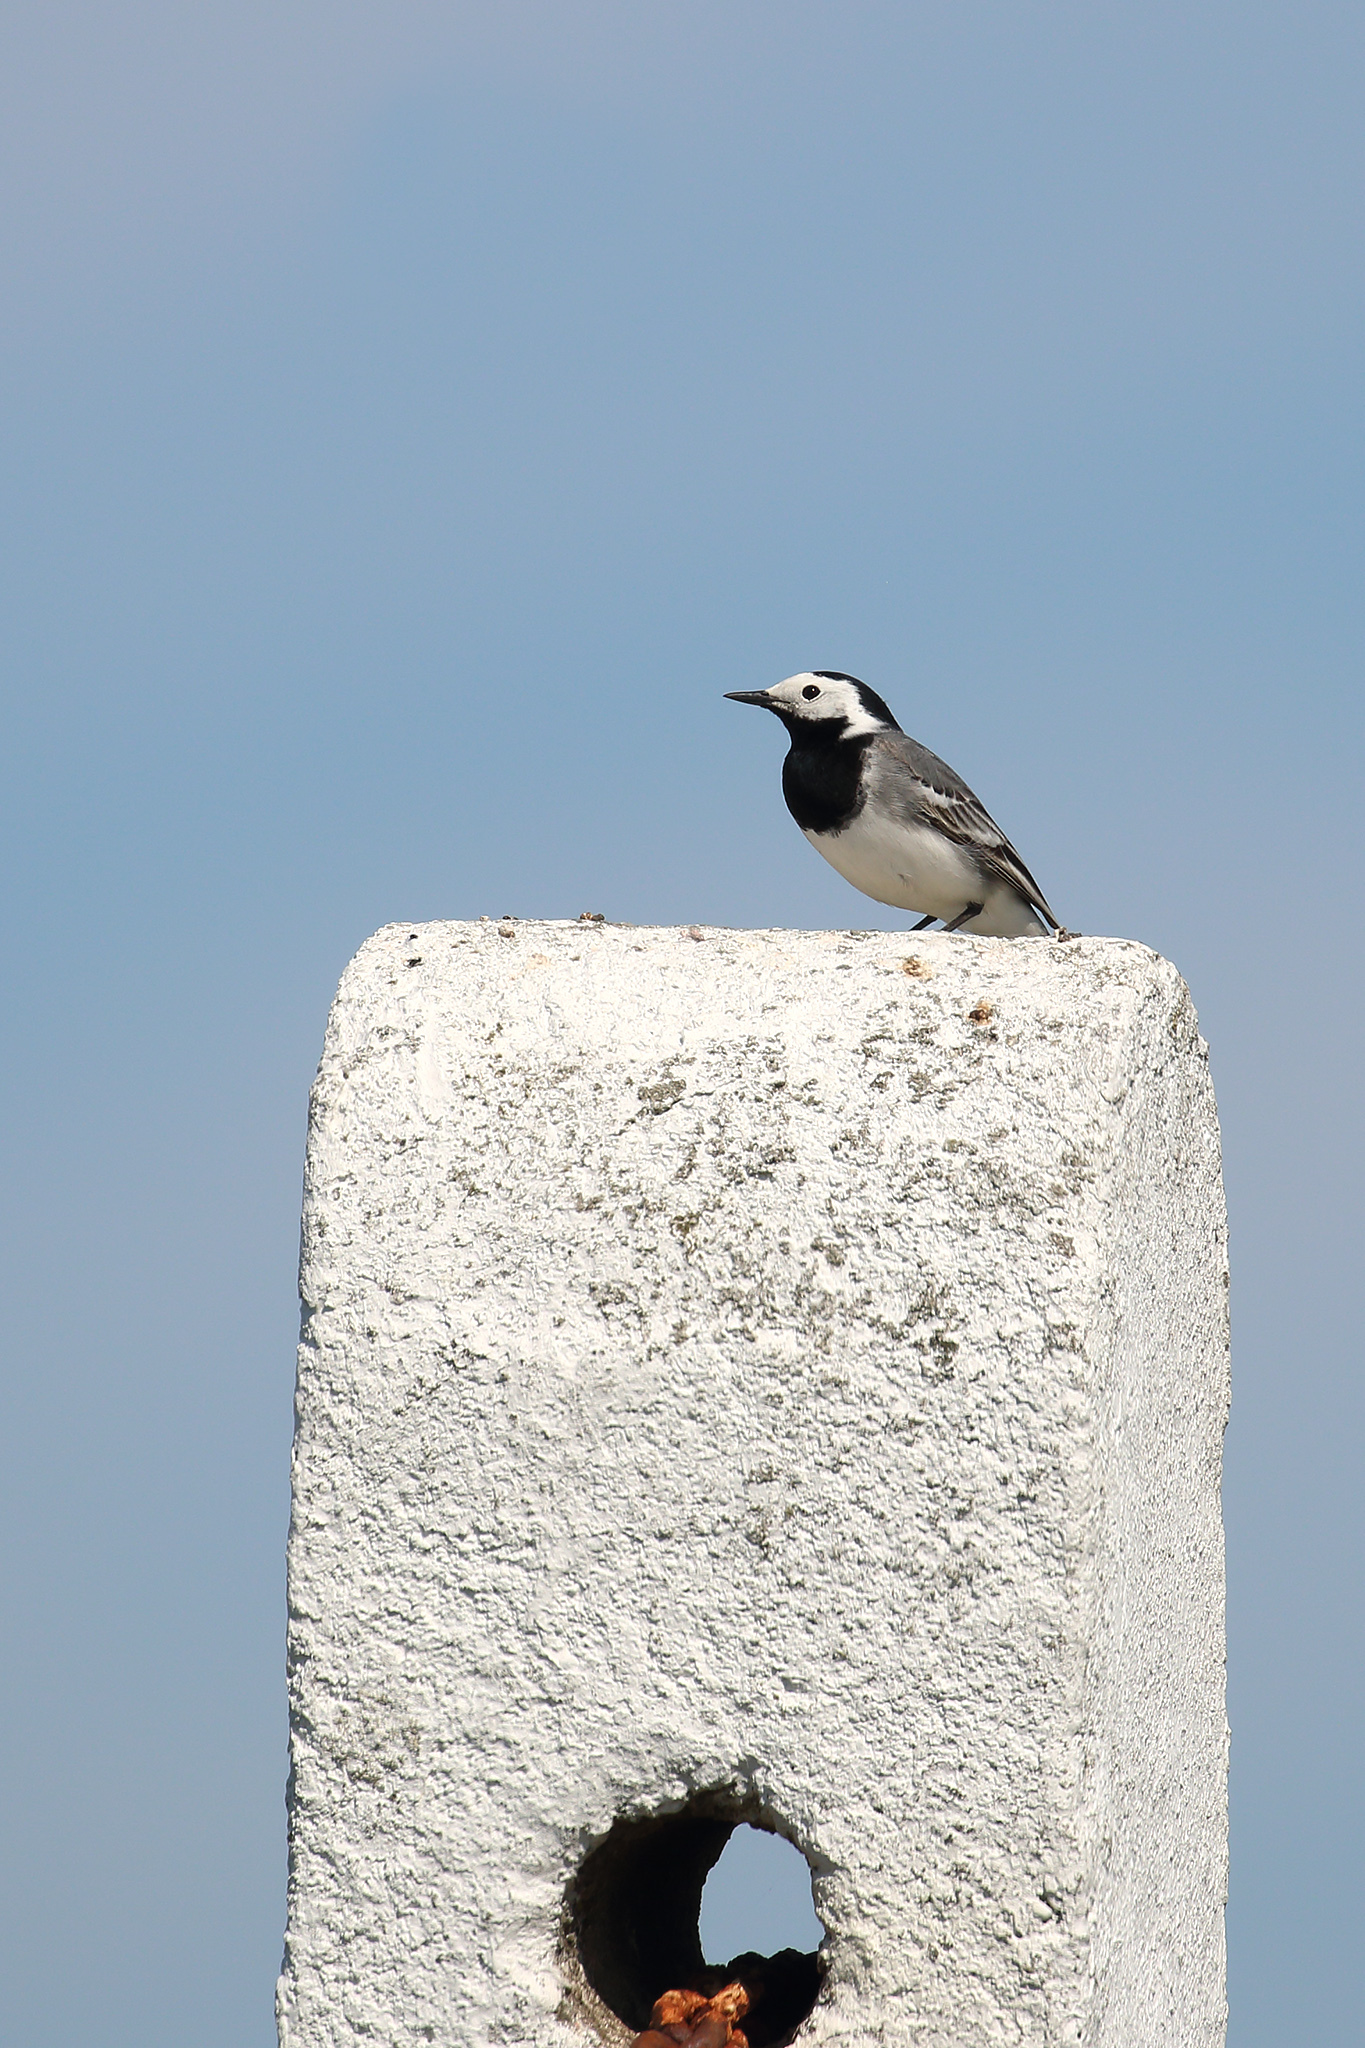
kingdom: Animalia
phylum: Chordata
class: Aves
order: Passeriformes
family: Motacillidae
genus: Motacilla
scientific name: Motacilla alba
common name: White wagtail
